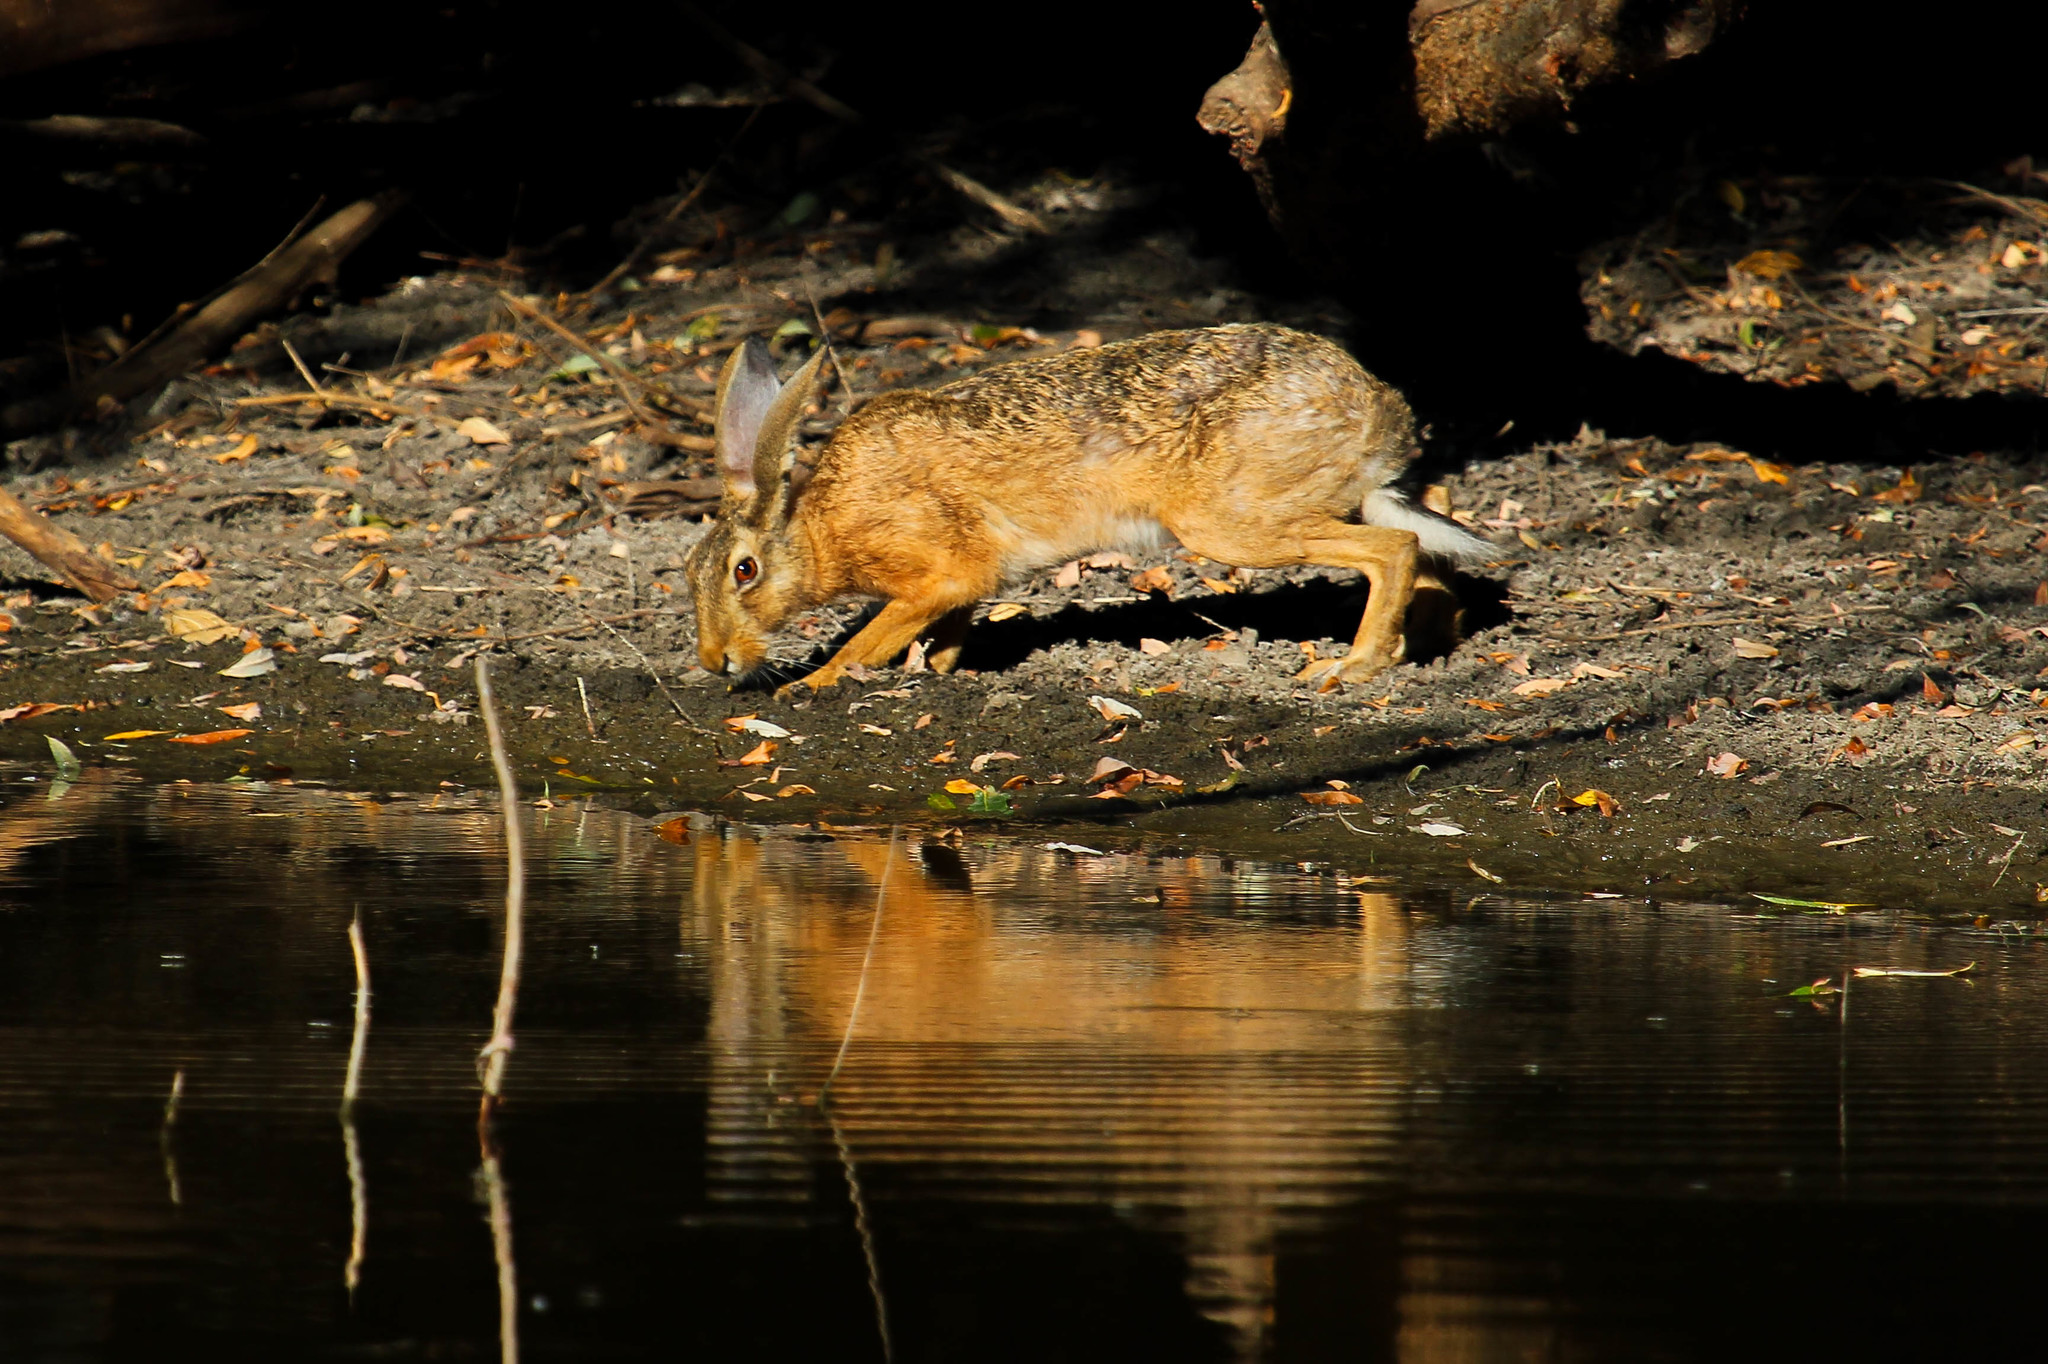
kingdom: Animalia
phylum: Chordata
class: Mammalia
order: Lagomorpha
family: Leporidae
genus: Lepus
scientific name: Lepus europaeus
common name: European hare
